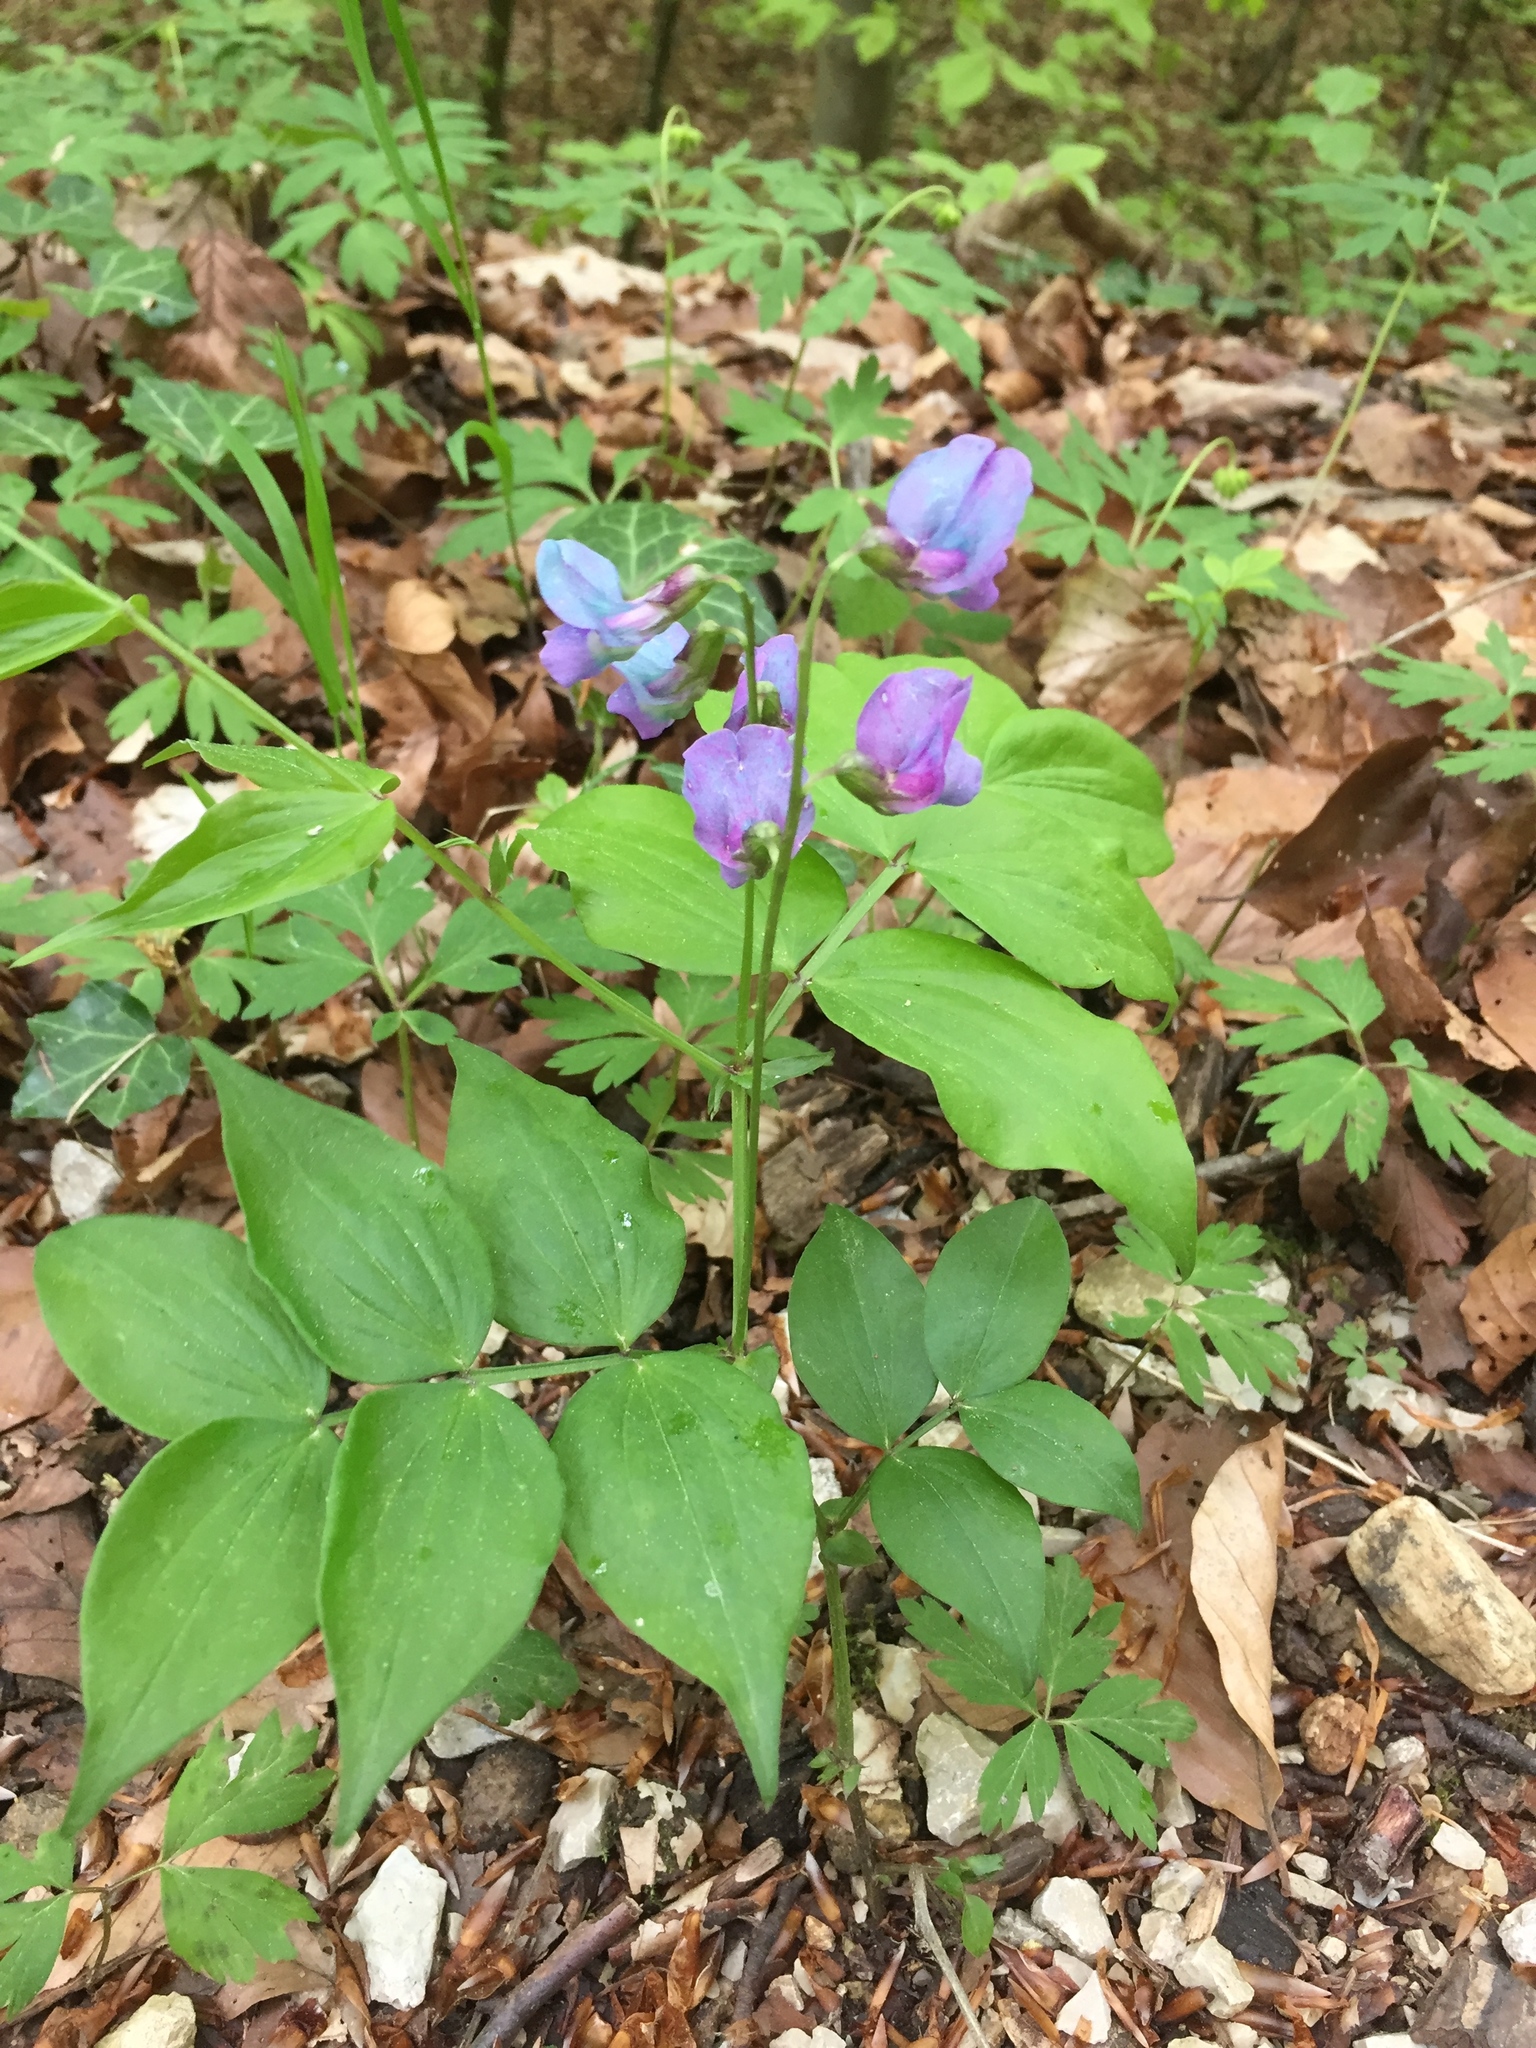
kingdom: Plantae
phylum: Tracheophyta
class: Magnoliopsida
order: Fabales
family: Fabaceae
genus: Lathyrus
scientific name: Lathyrus vernus
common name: Spring pea
